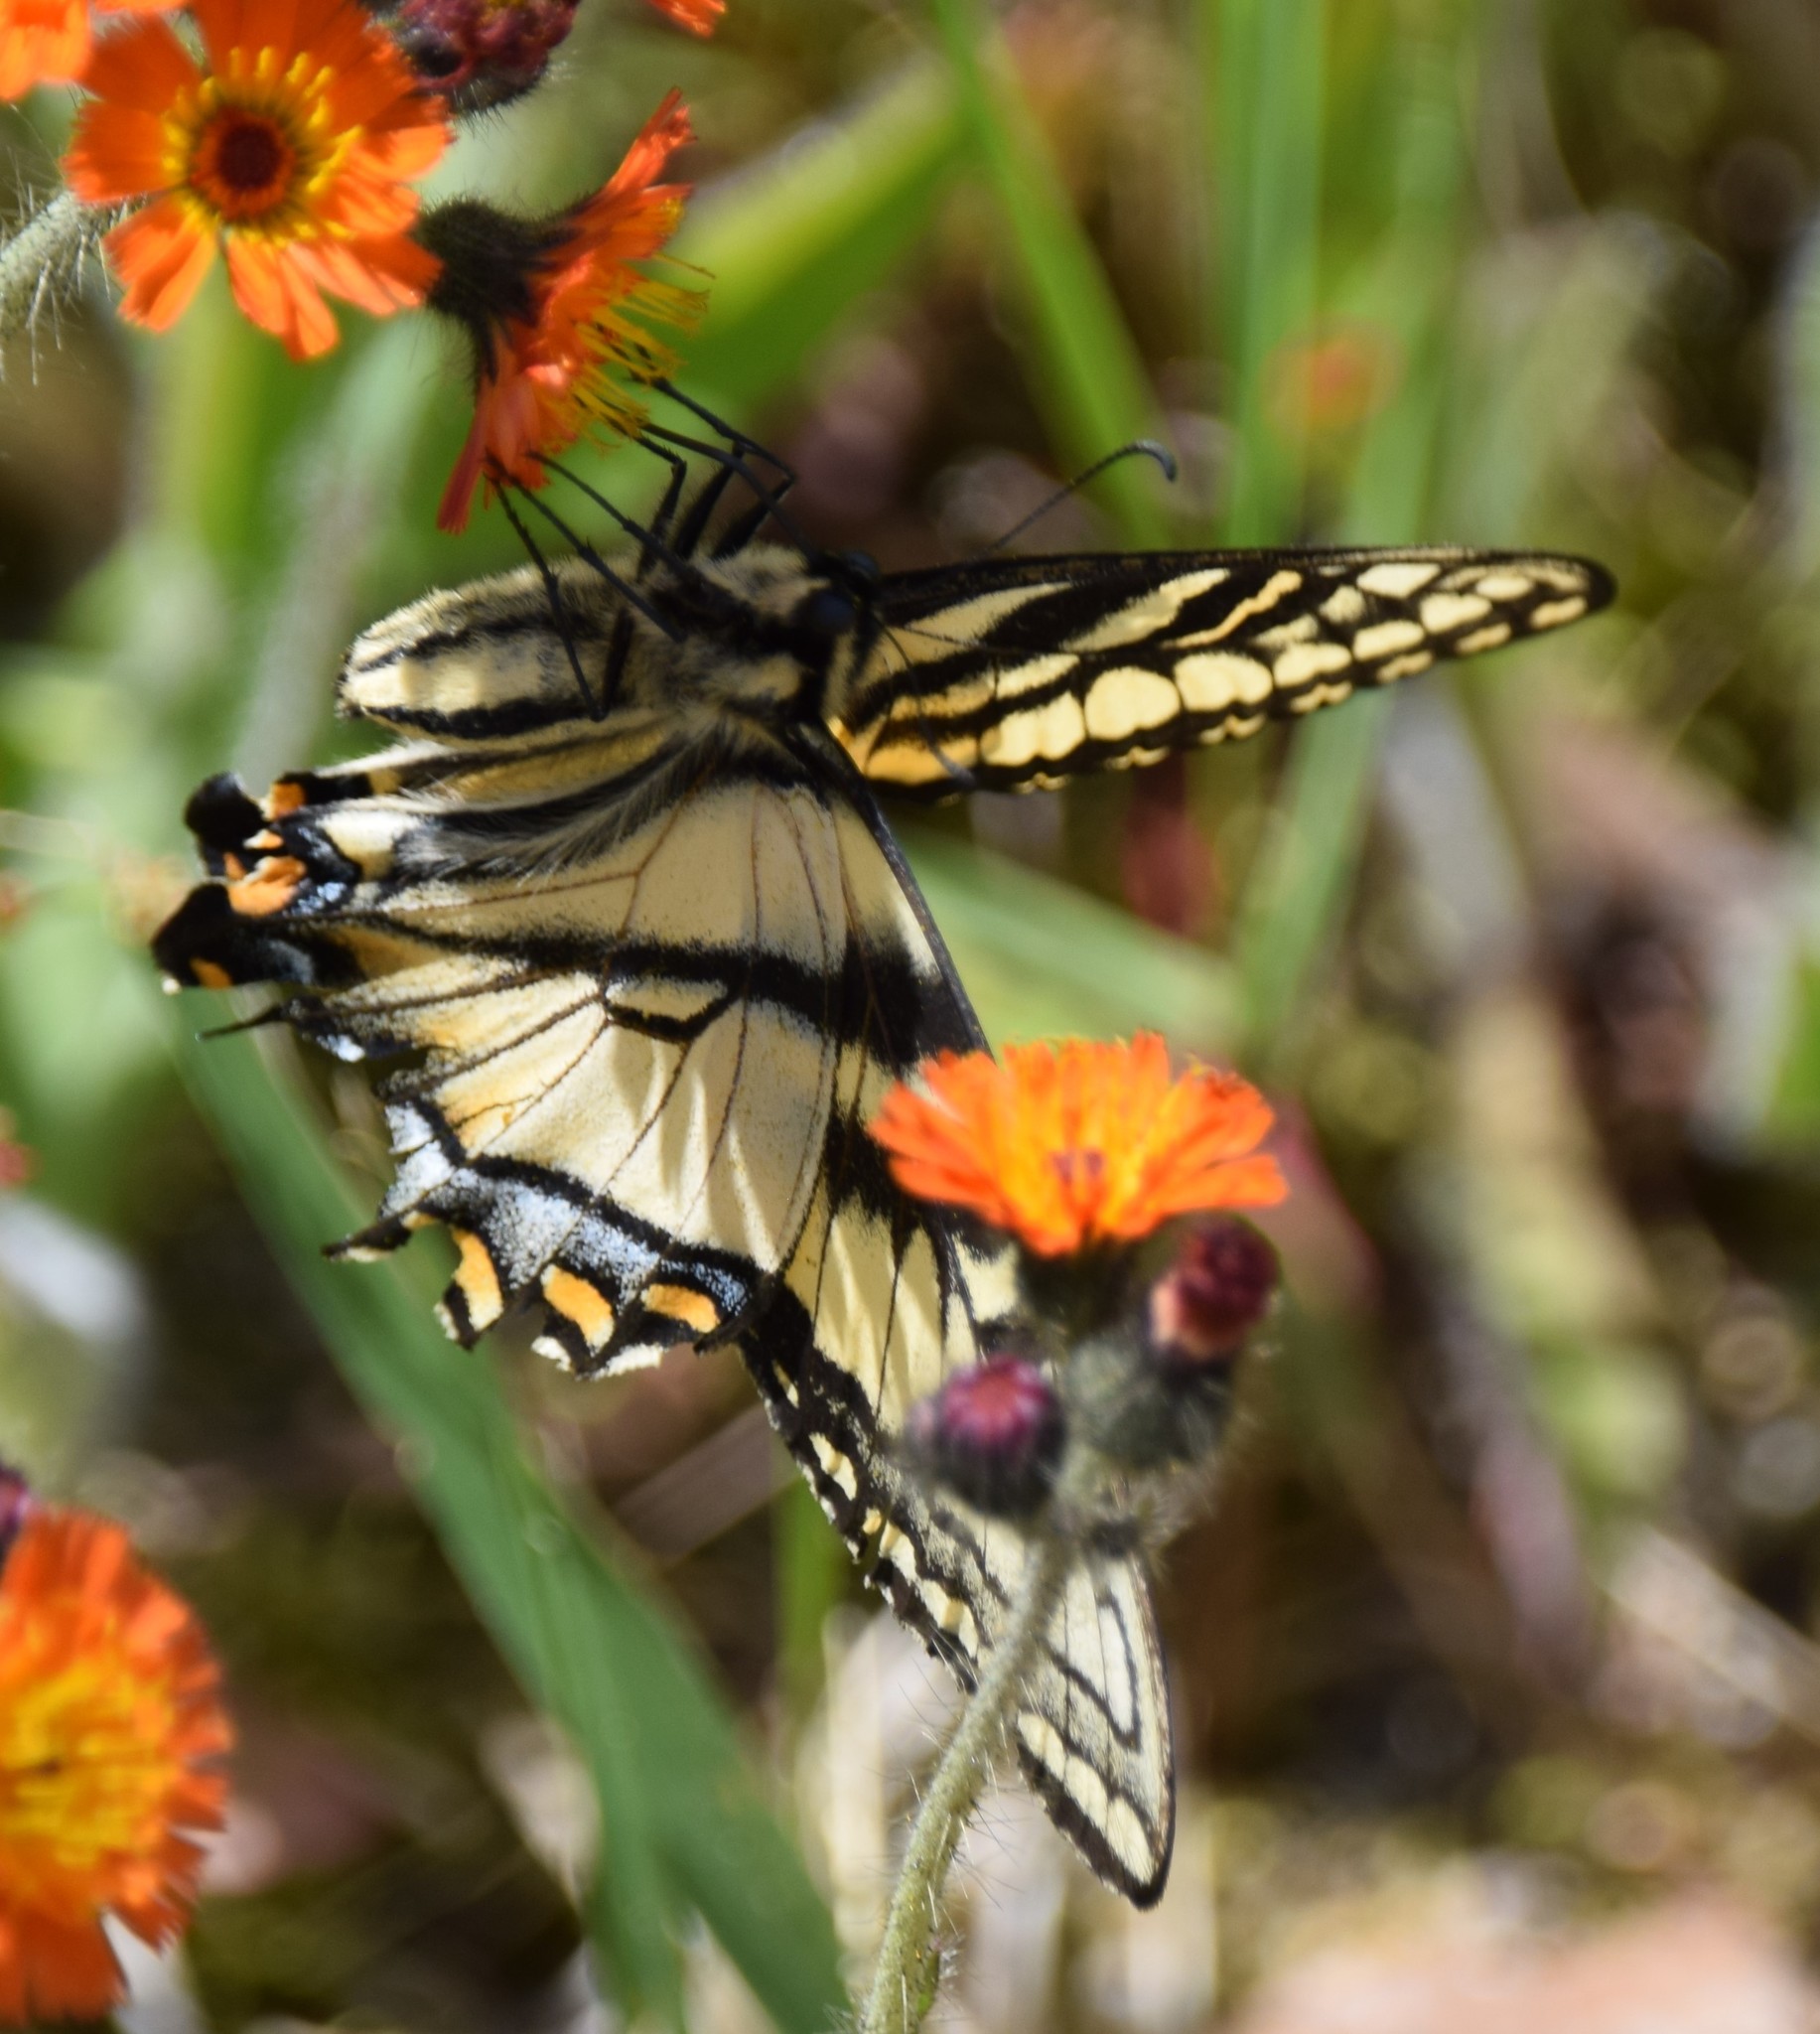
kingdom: Animalia
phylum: Arthropoda
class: Insecta
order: Lepidoptera
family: Papilionidae
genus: Papilio
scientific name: Papilio canadensis
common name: Canadian tiger swallowtail
